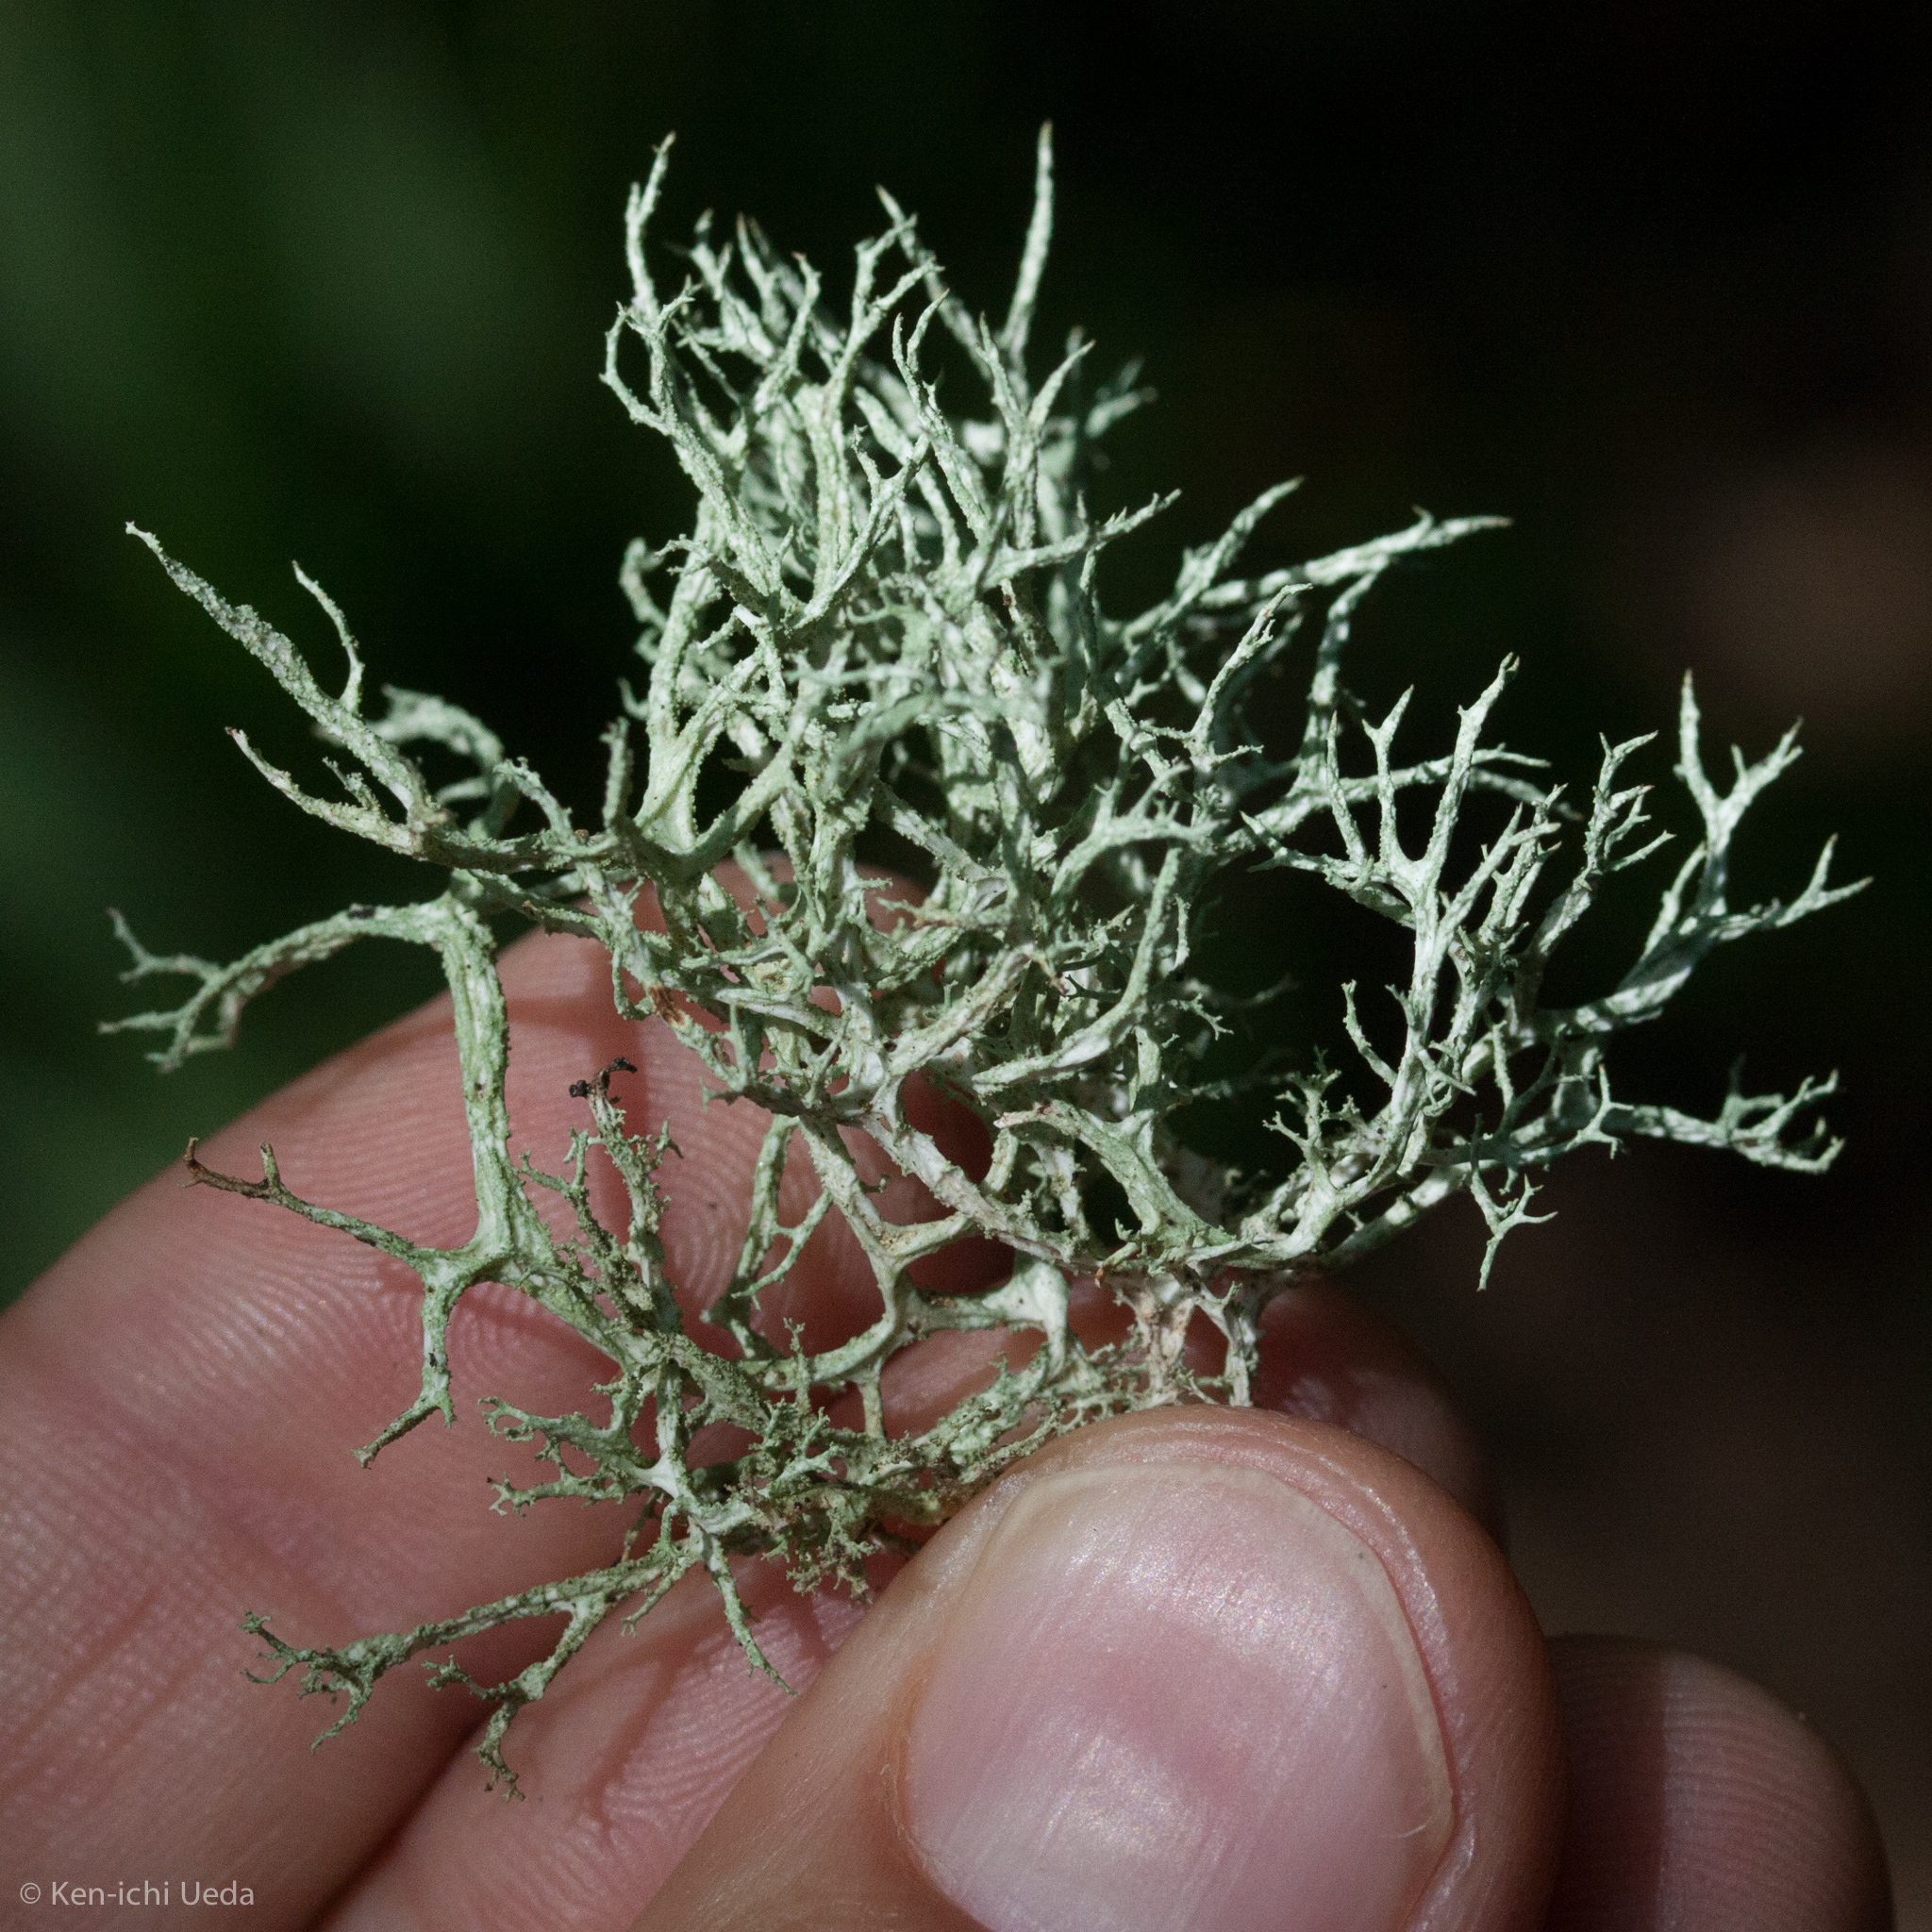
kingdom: Fungi
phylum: Ascomycota
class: Lecanoromycetes
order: Lecanorales
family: Parmeliaceae
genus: Evernia
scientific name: Evernia mesomorpha
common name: Boreal oak moss lichen
